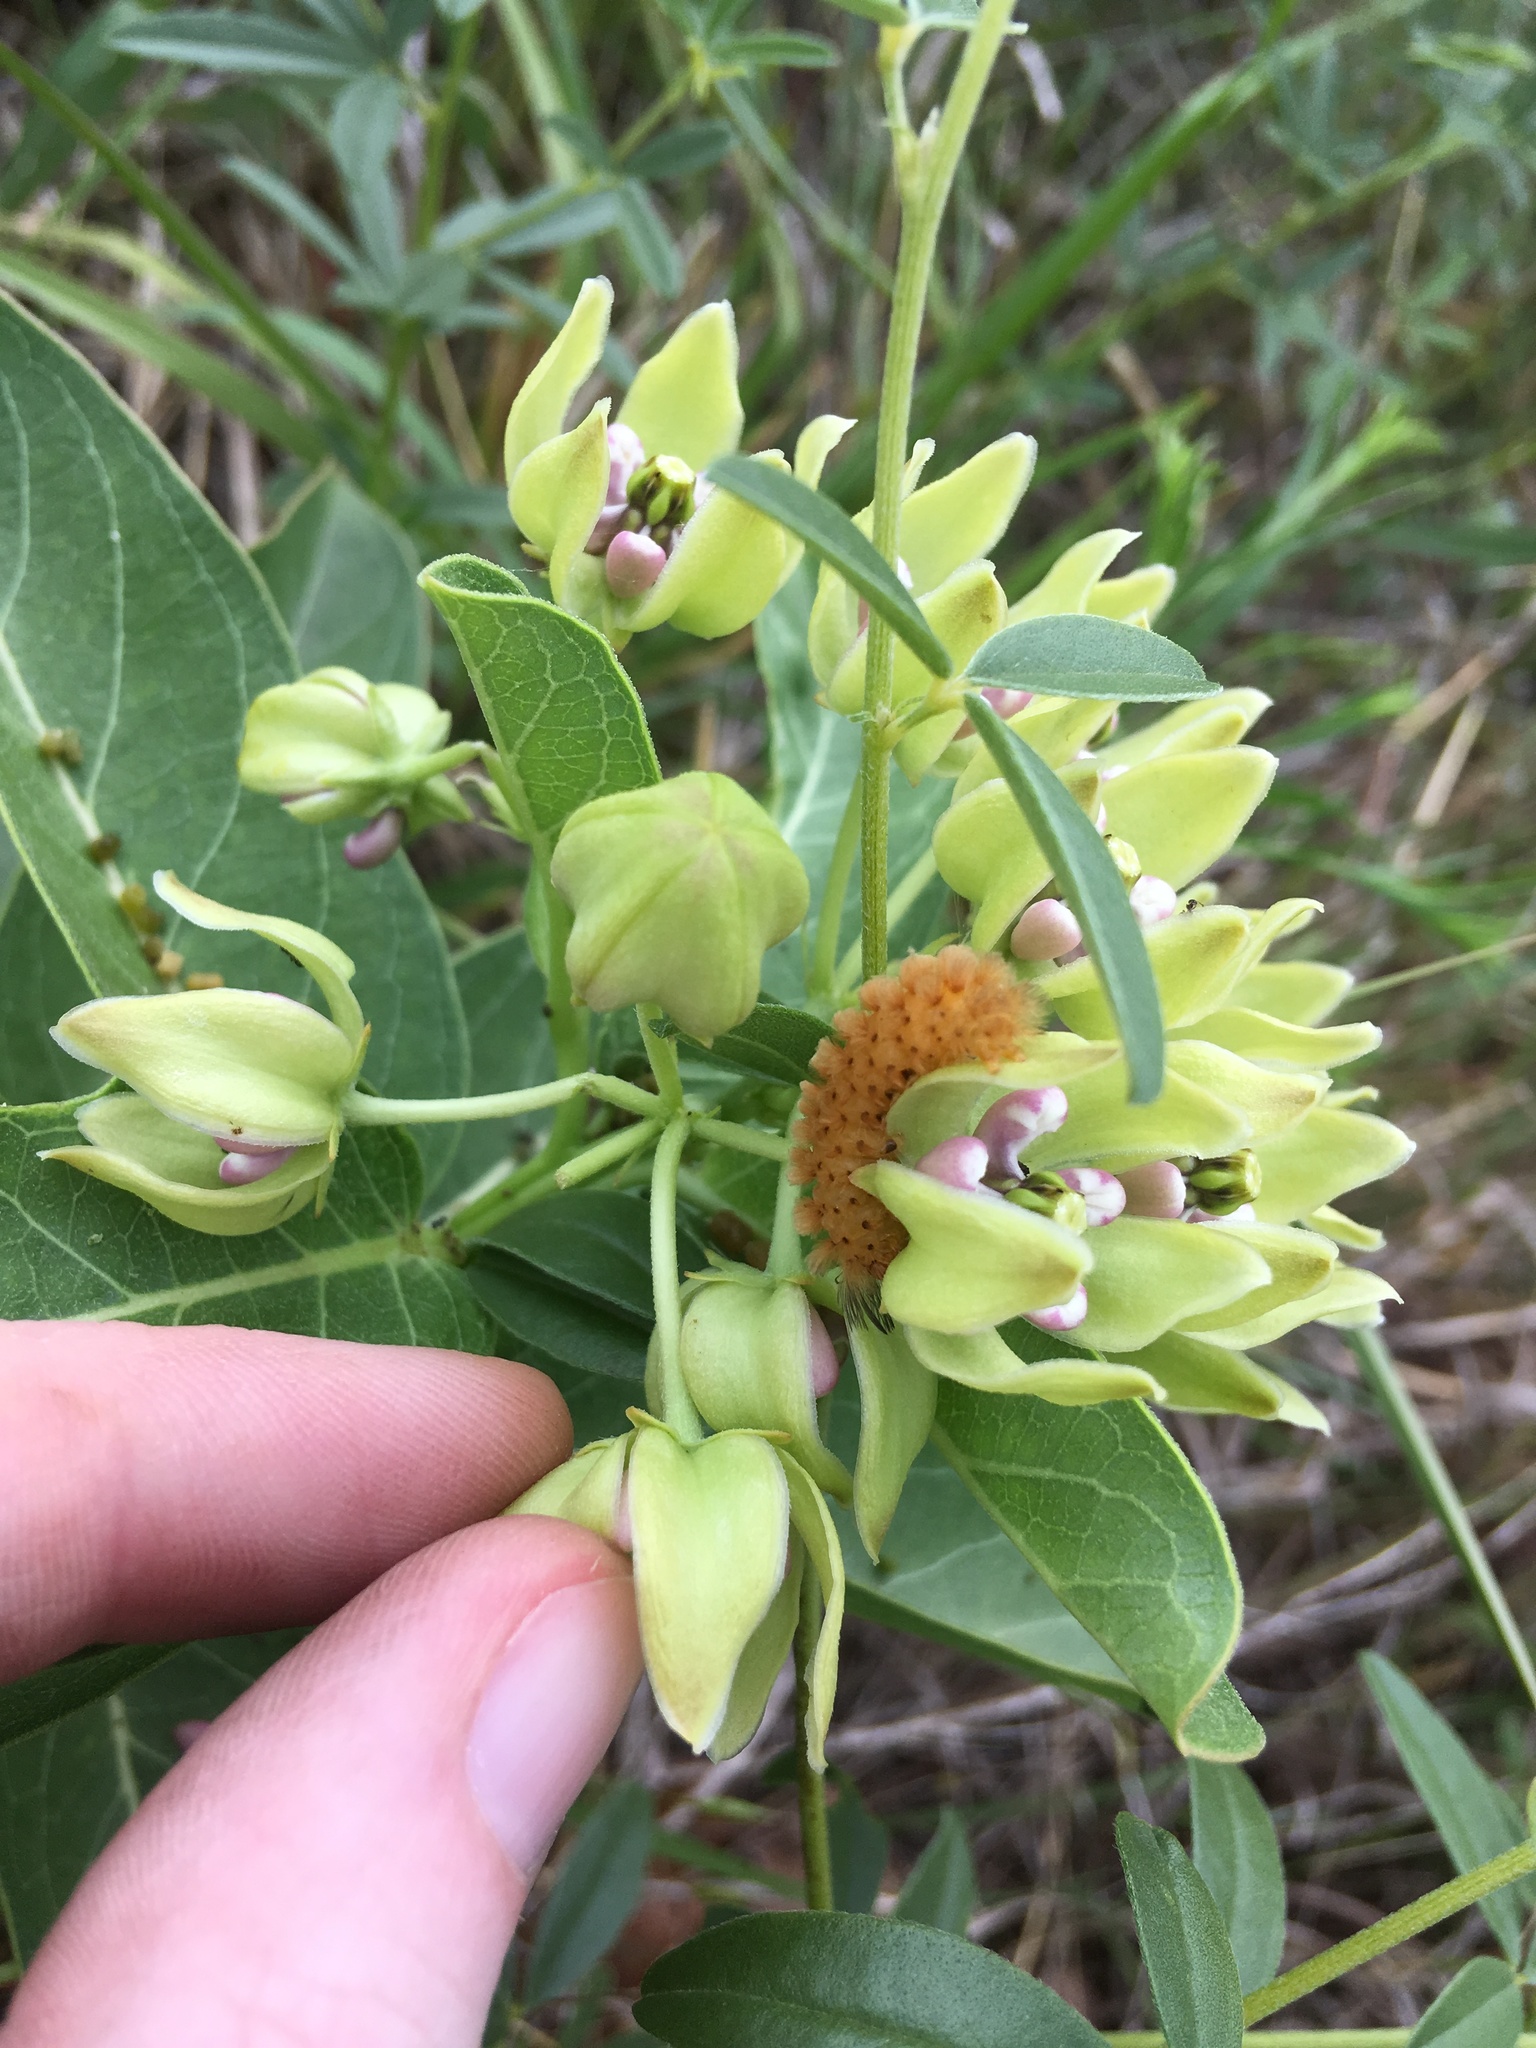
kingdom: Animalia
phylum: Arthropoda
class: Insecta
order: Lepidoptera
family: Erebidae
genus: Cycnia
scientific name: Cycnia collaris
